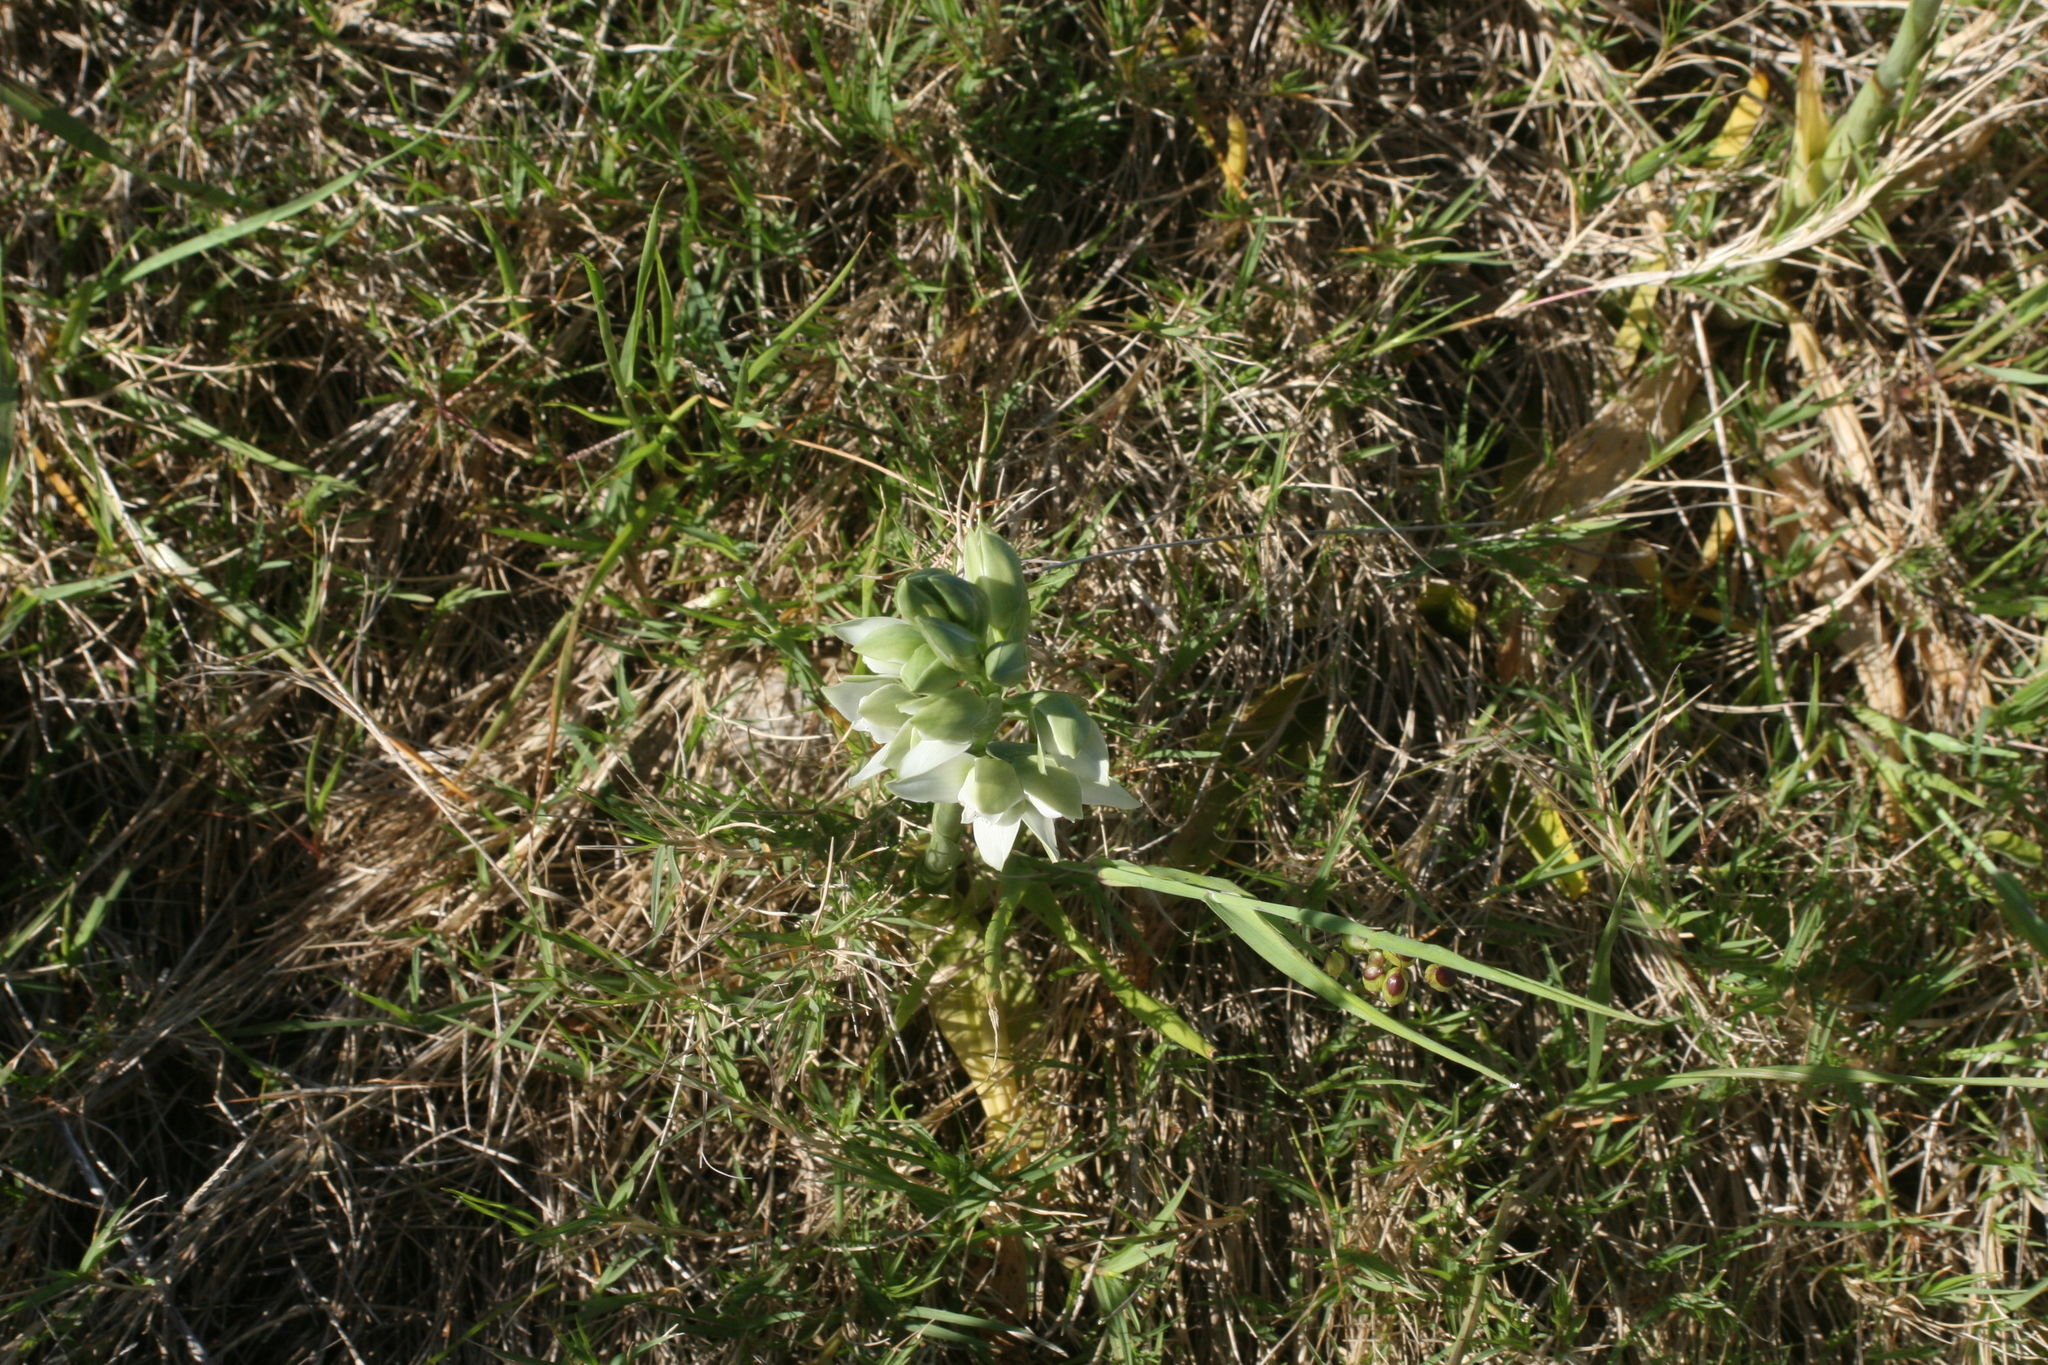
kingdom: Plantae
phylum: Tracheophyta
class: Liliopsida
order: Asparagales
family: Orchidaceae
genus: Chloraea
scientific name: Chloraea membranacea
